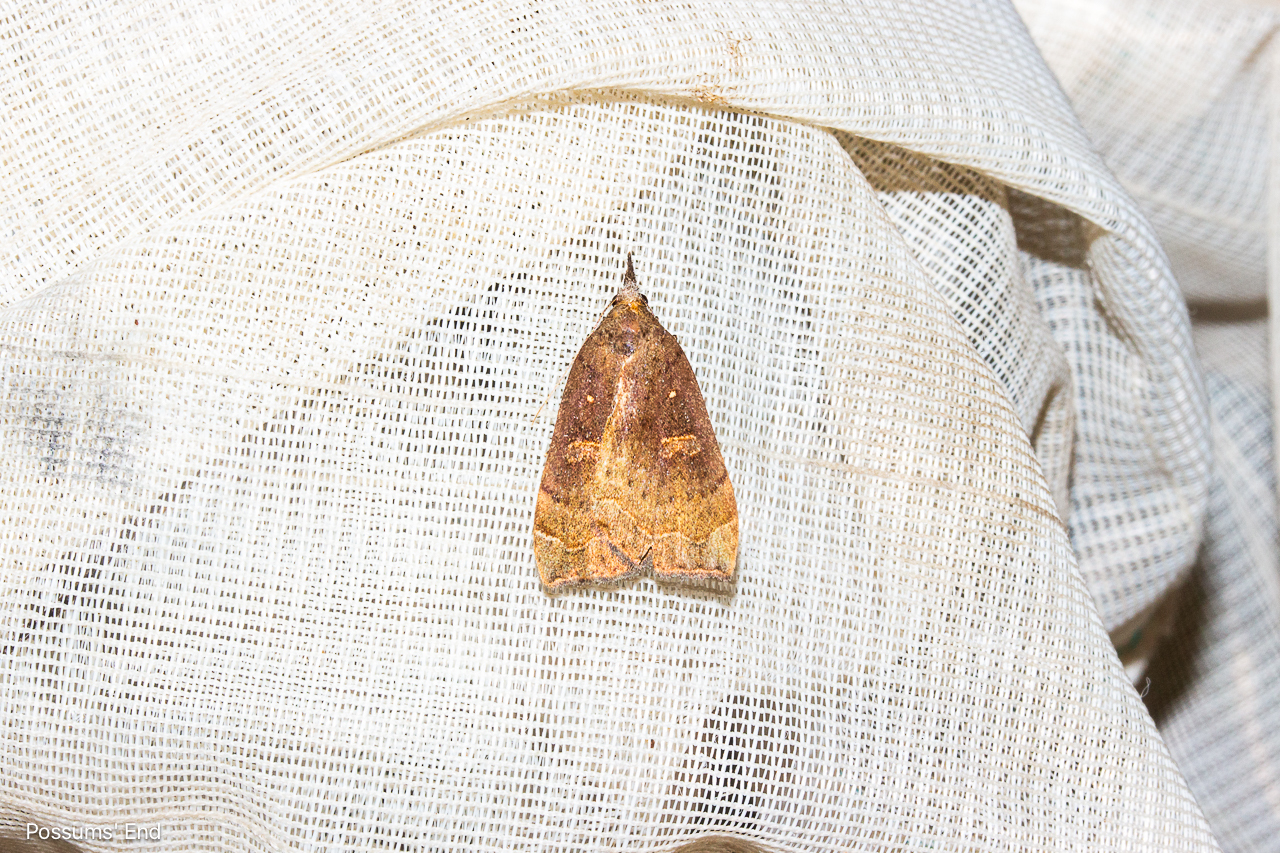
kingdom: Animalia
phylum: Arthropoda
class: Insecta
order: Lepidoptera
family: Erebidae
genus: Rhapsa
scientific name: Rhapsa scotosialis
